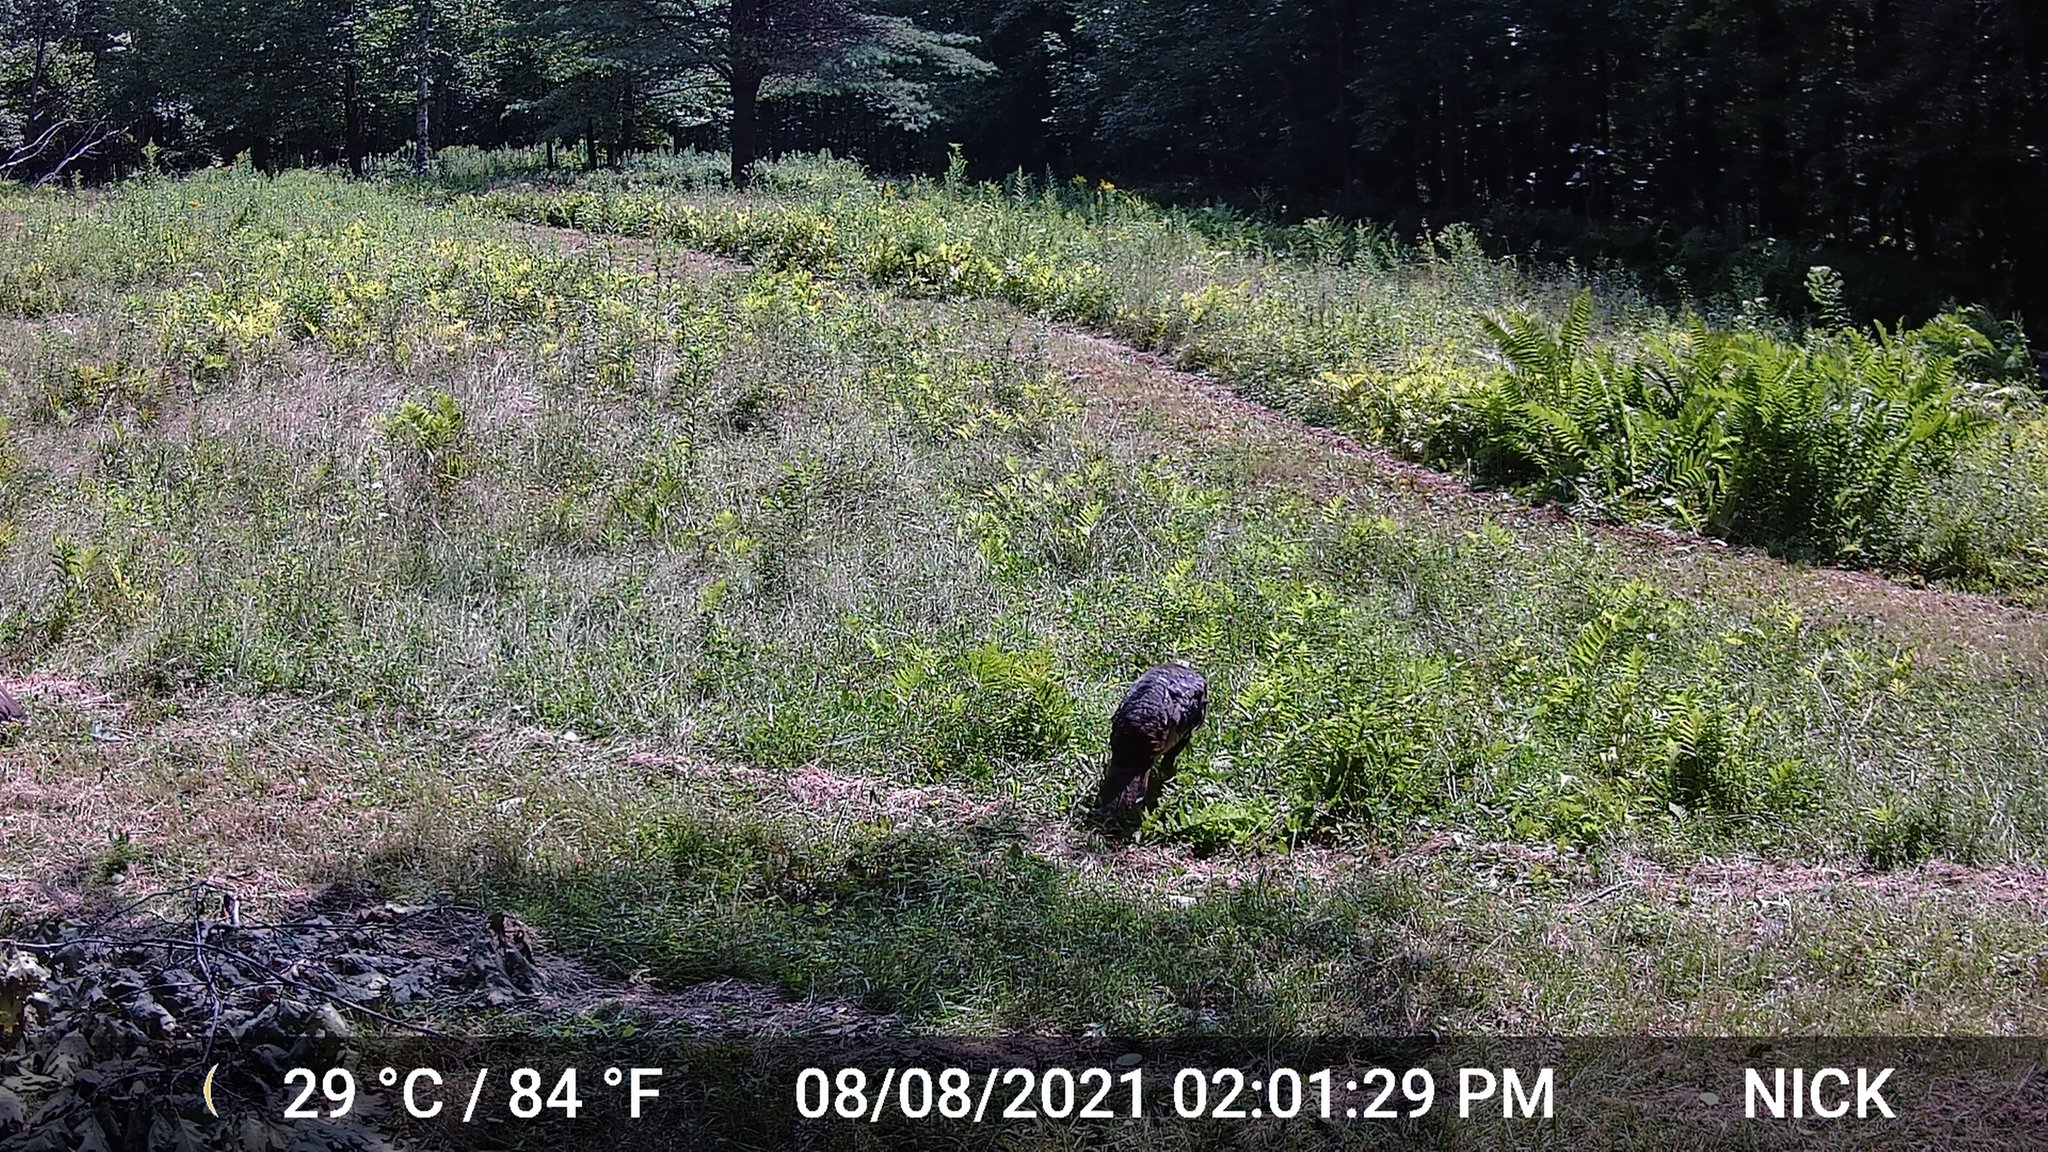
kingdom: Animalia
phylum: Chordata
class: Aves
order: Galliformes
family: Phasianidae
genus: Meleagris
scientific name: Meleagris gallopavo
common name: Wild turkey
